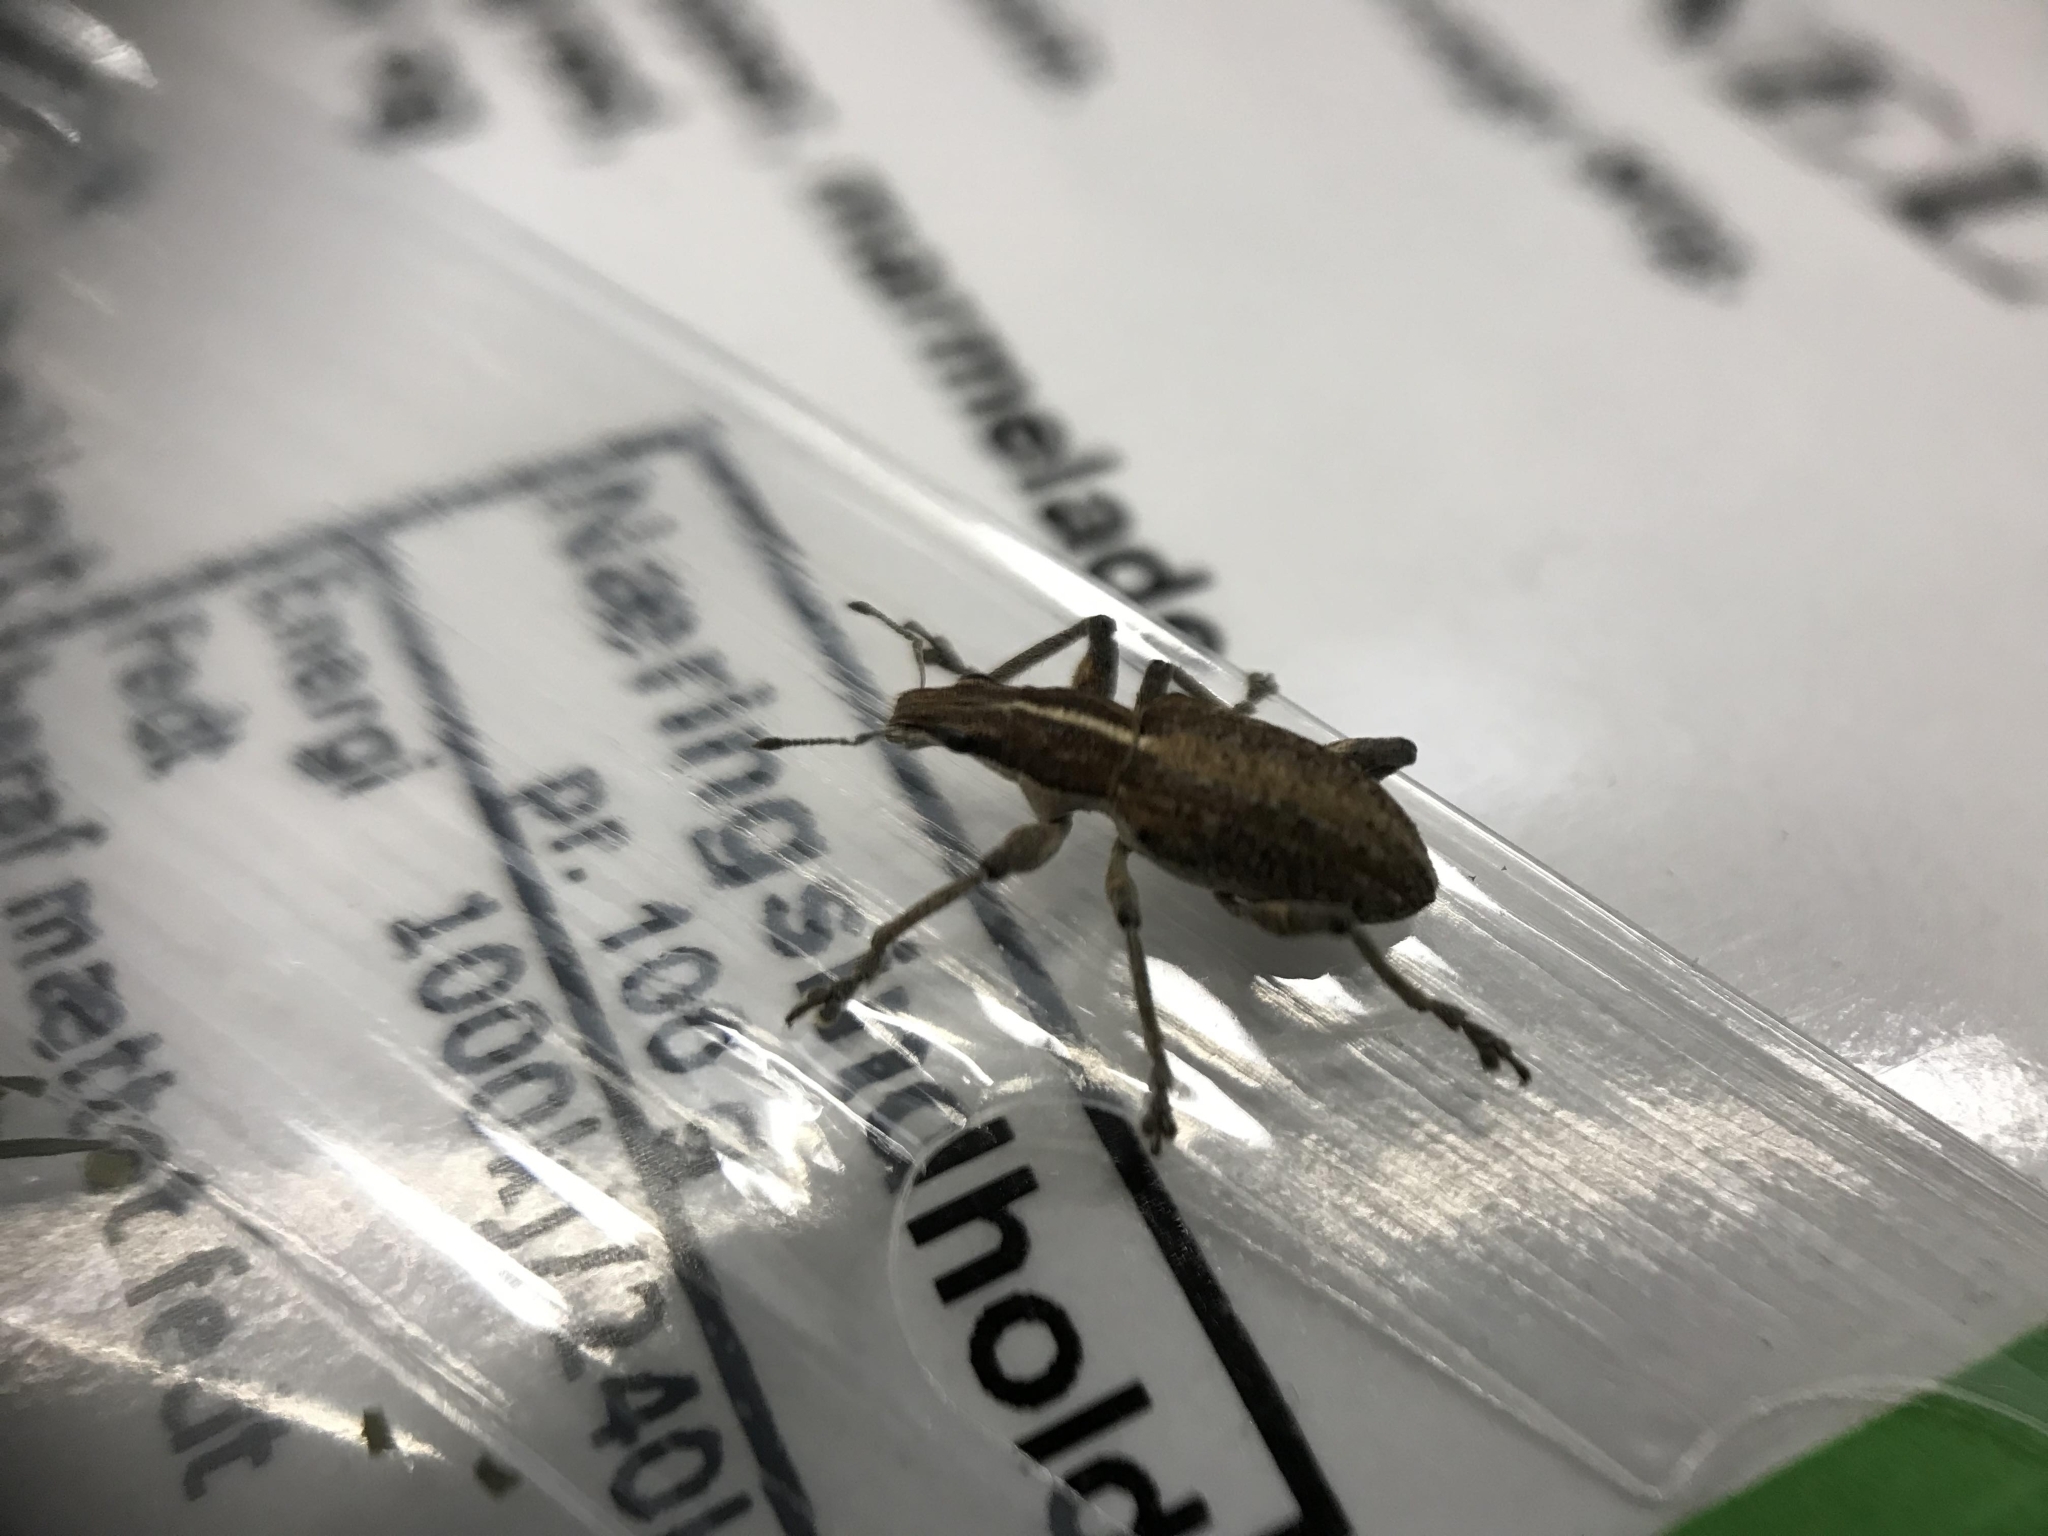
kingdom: Animalia
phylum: Arthropoda
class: Insecta
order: Coleoptera
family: Curculionidae
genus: Charagmus
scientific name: Charagmus gressorius
